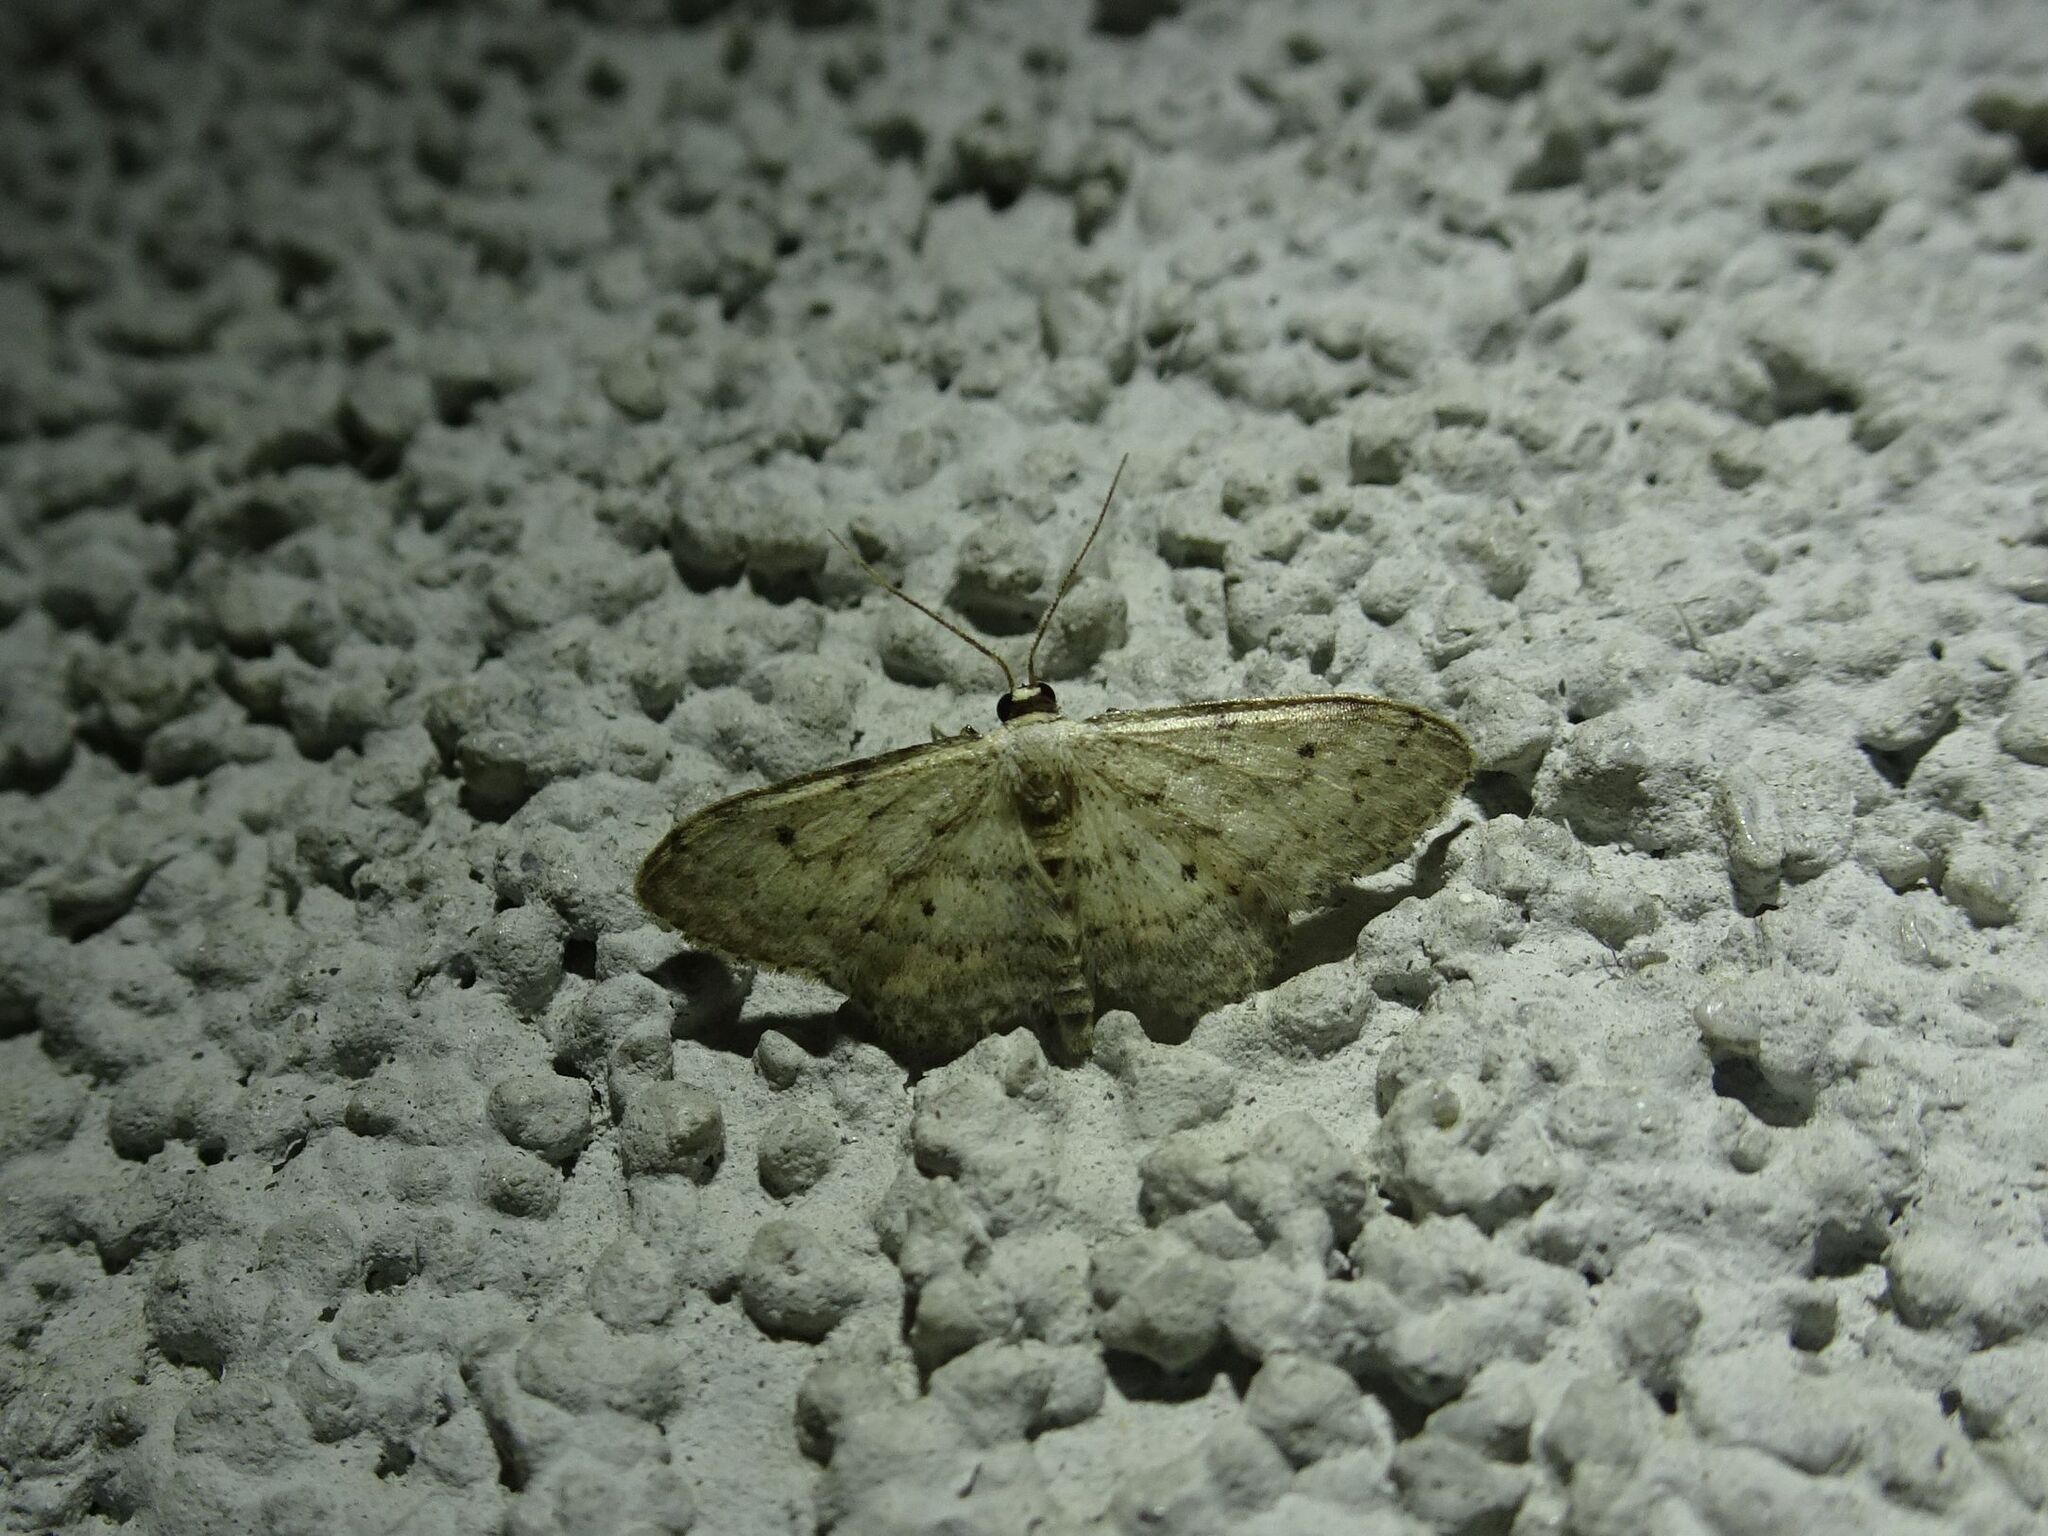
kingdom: Animalia
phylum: Arthropoda
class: Insecta
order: Lepidoptera
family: Geometridae
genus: Idaea
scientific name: Idaea seriata
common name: Small dusty wave
